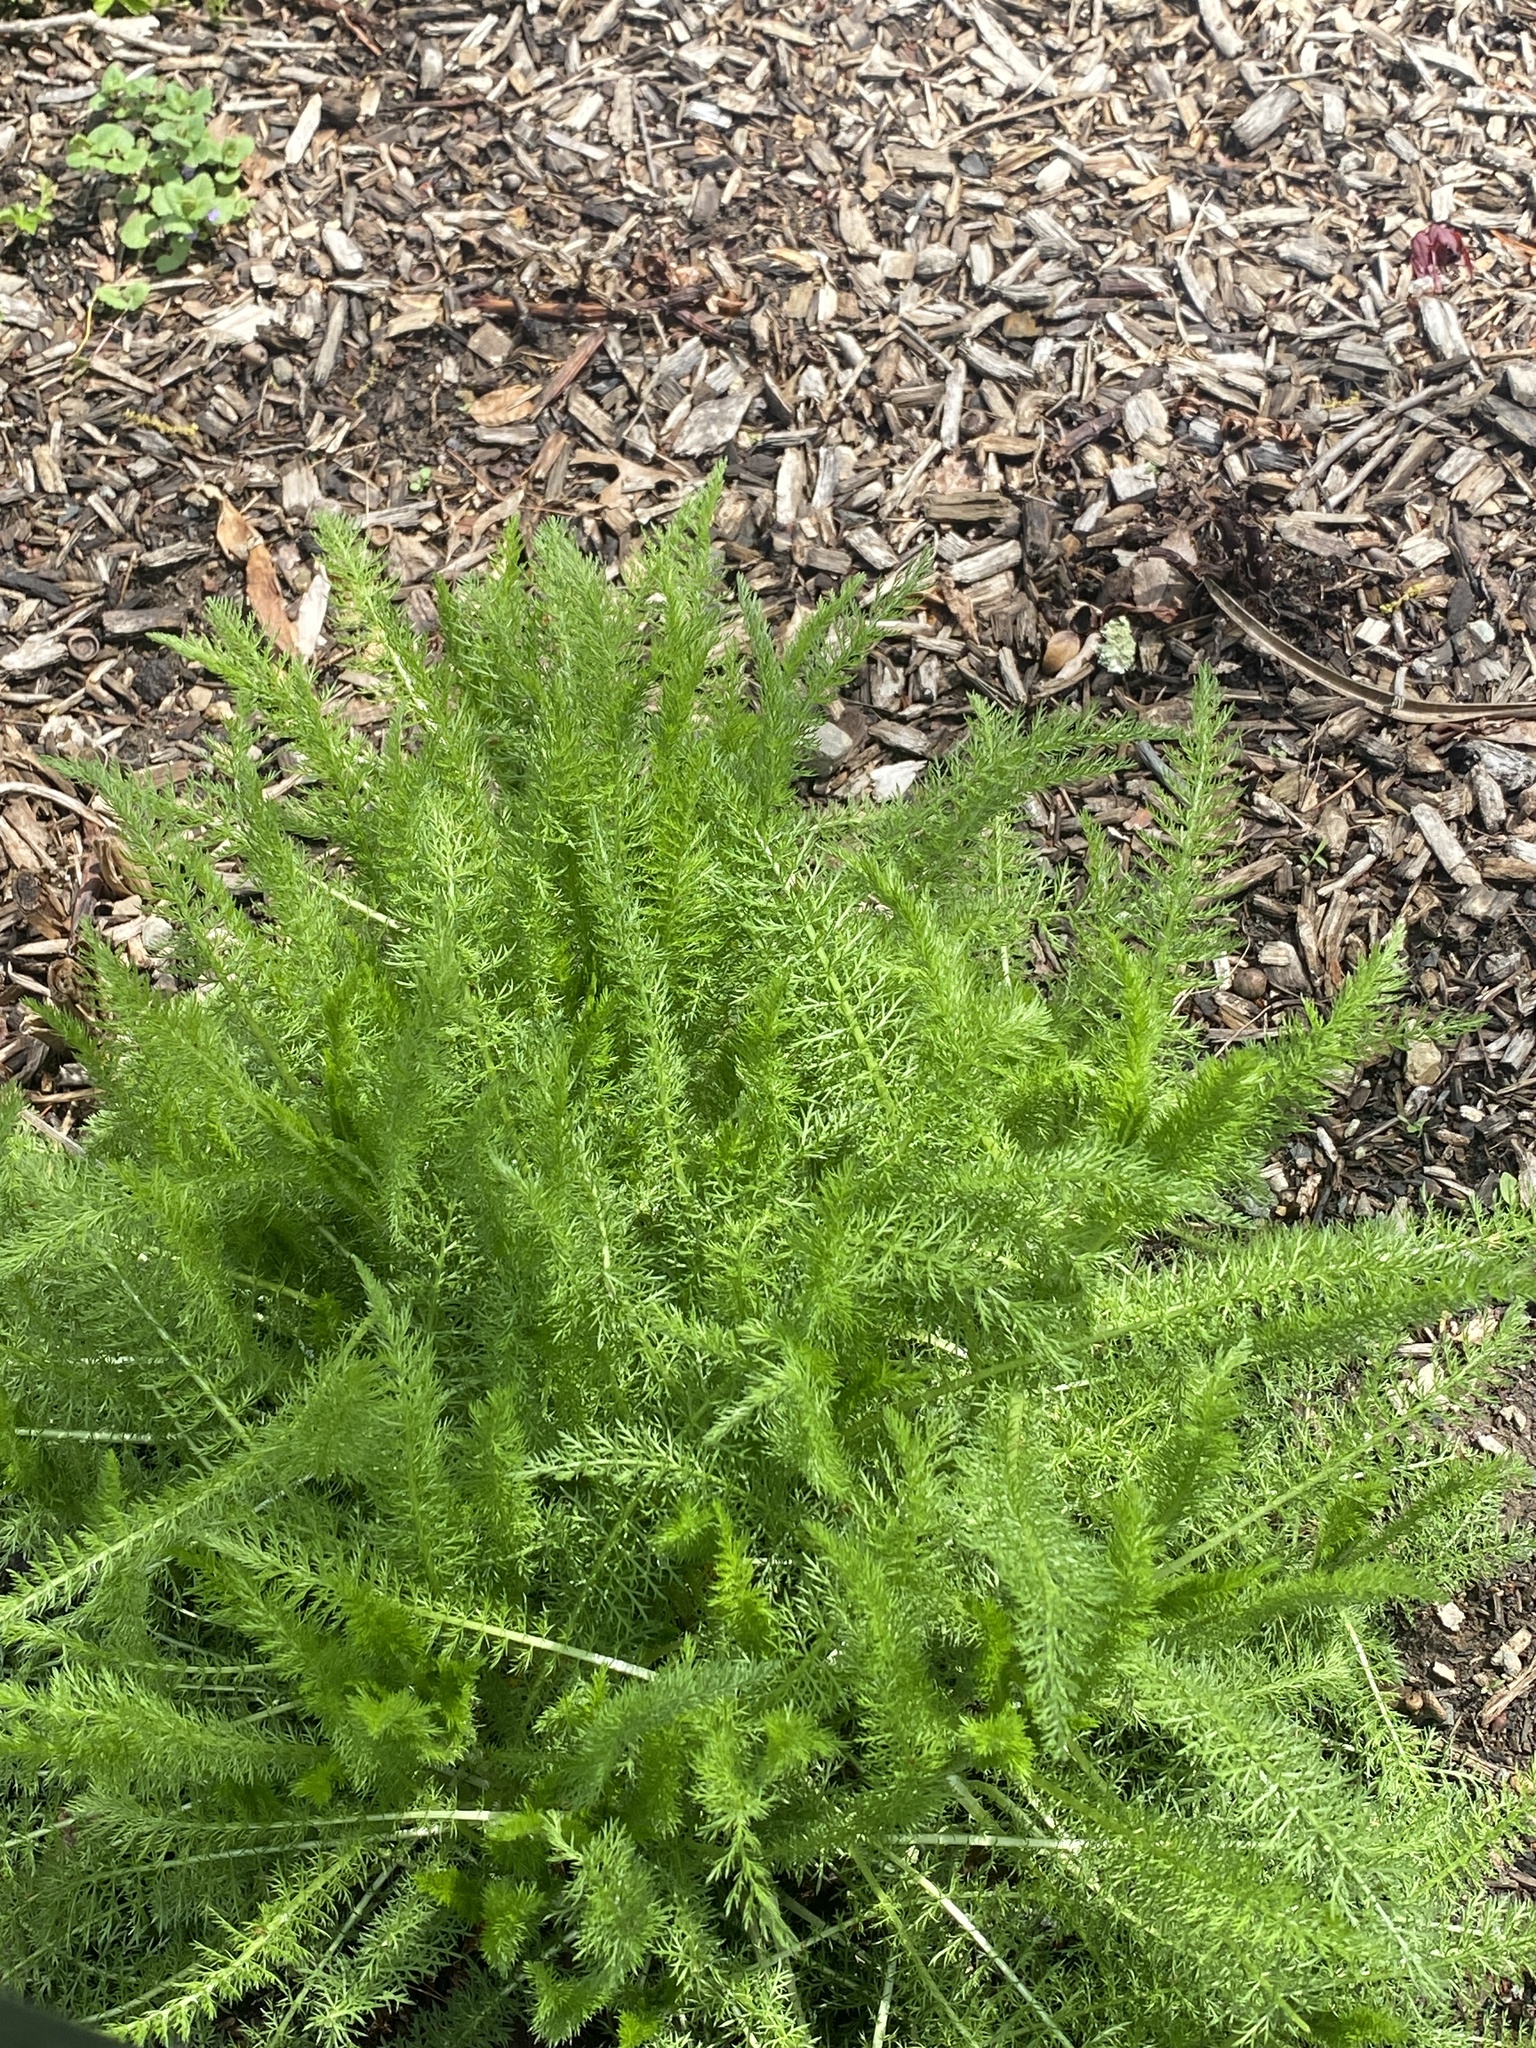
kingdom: Plantae
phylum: Tracheophyta
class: Magnoliopsida
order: Asterales
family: Asteraceae
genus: Achillea
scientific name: Achillea millefolium
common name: Yarrow
